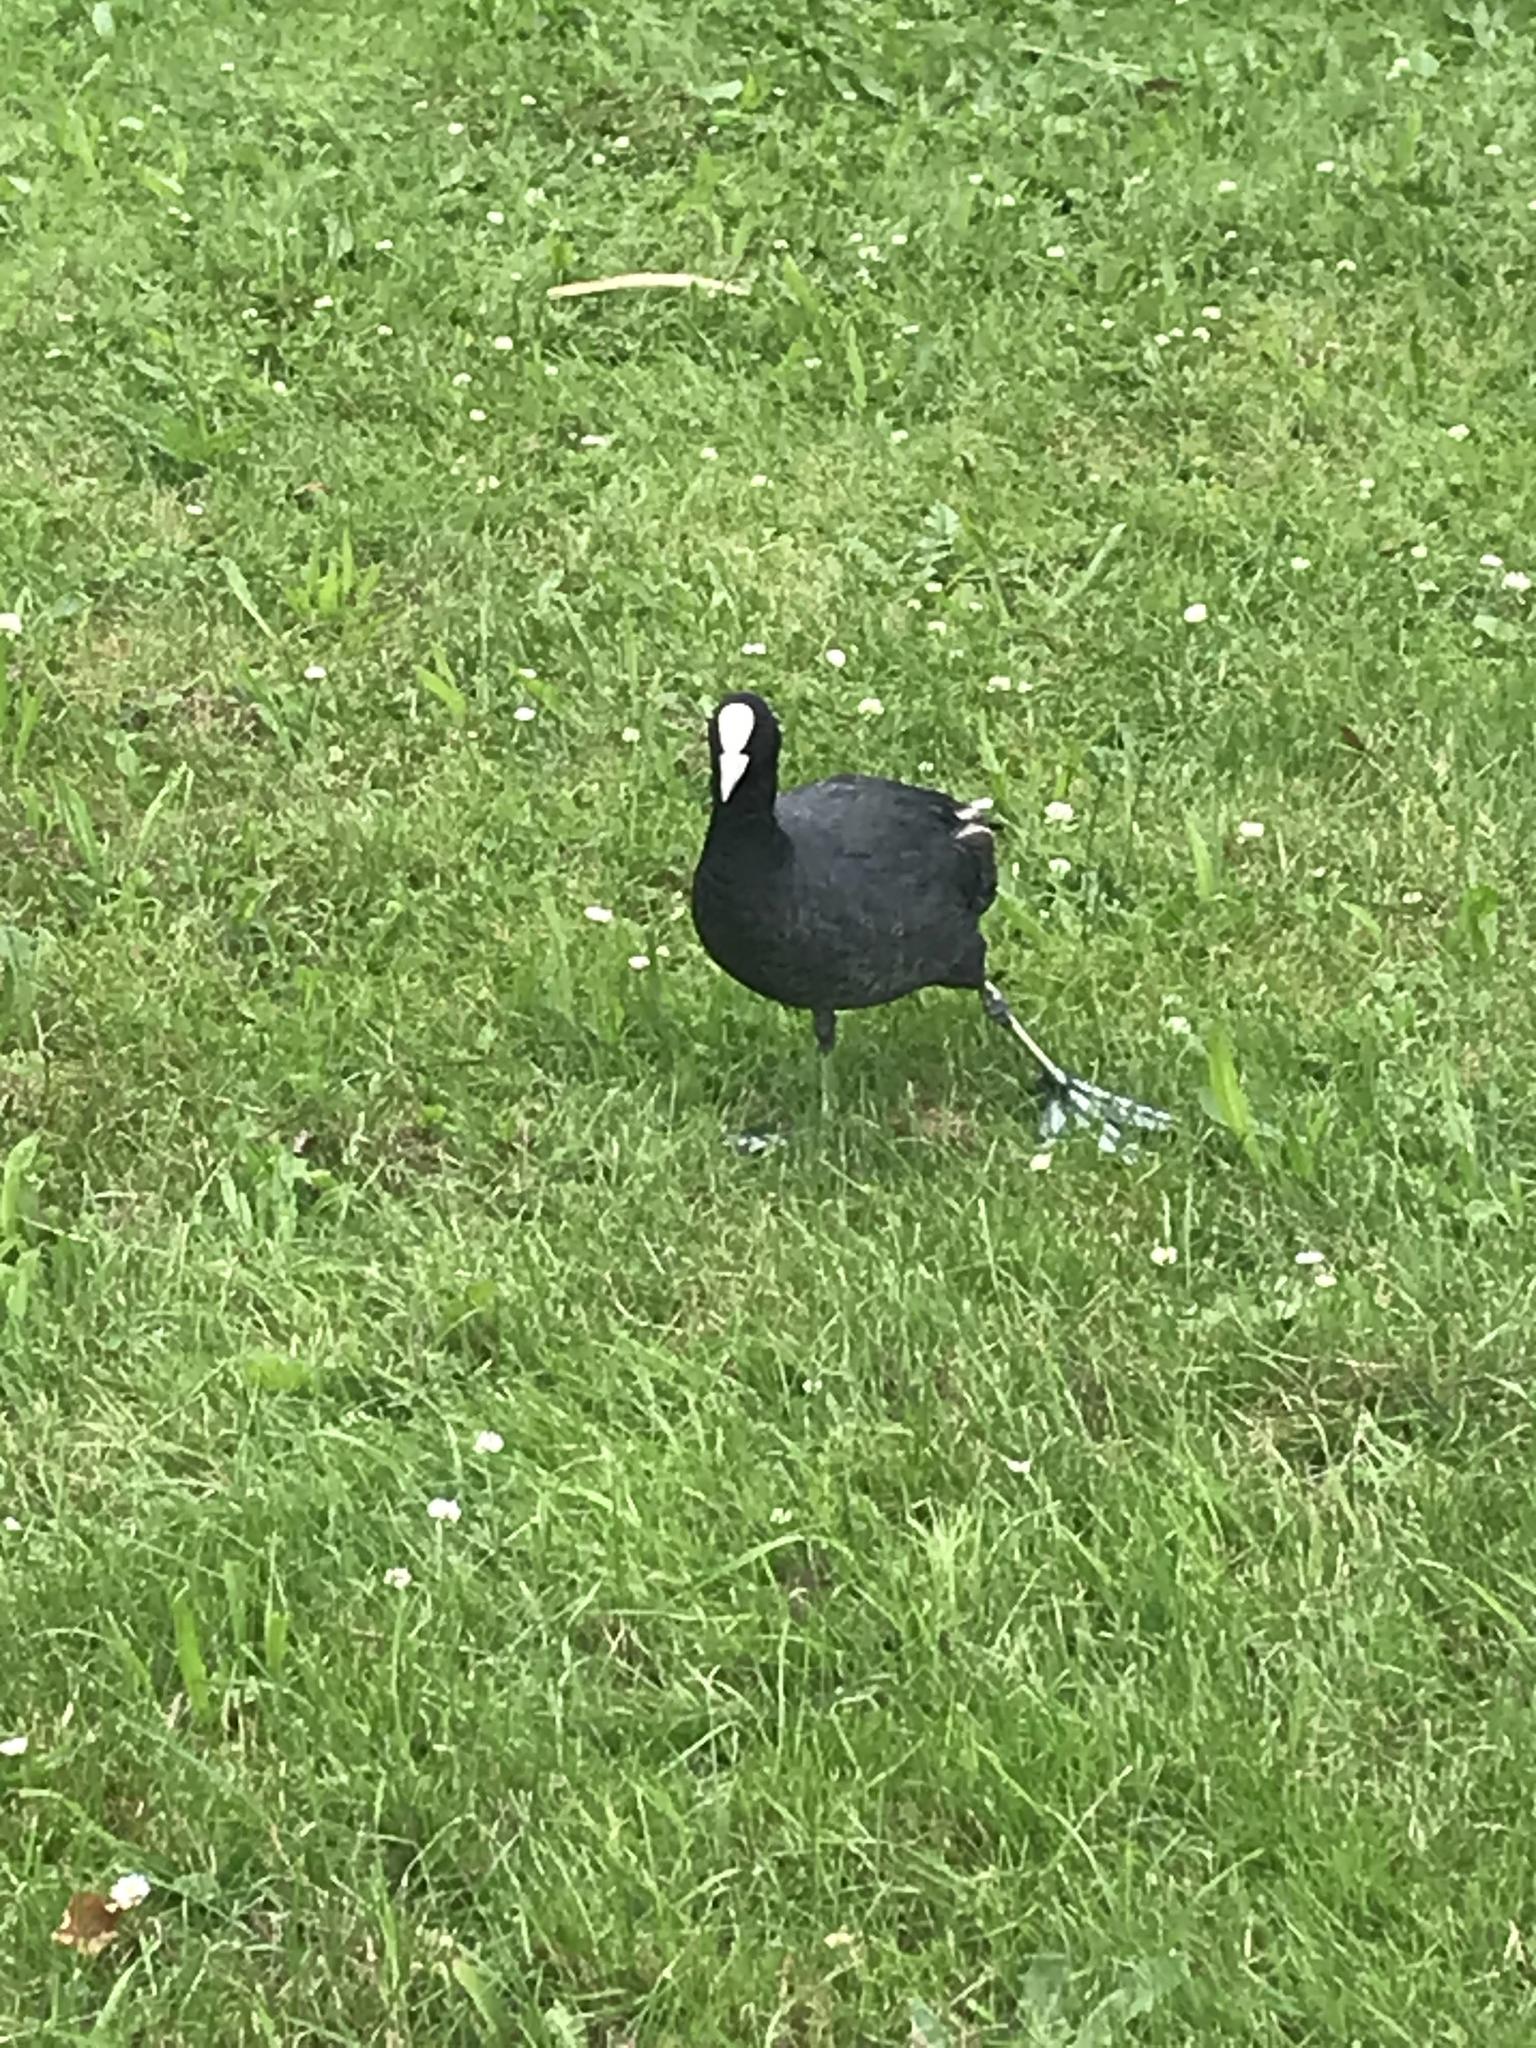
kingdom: Animalia
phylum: Chordata
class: Aves
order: Gruiformes
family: Rallidae
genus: Fulica
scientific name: Fulica atra
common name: Eurasian coot
